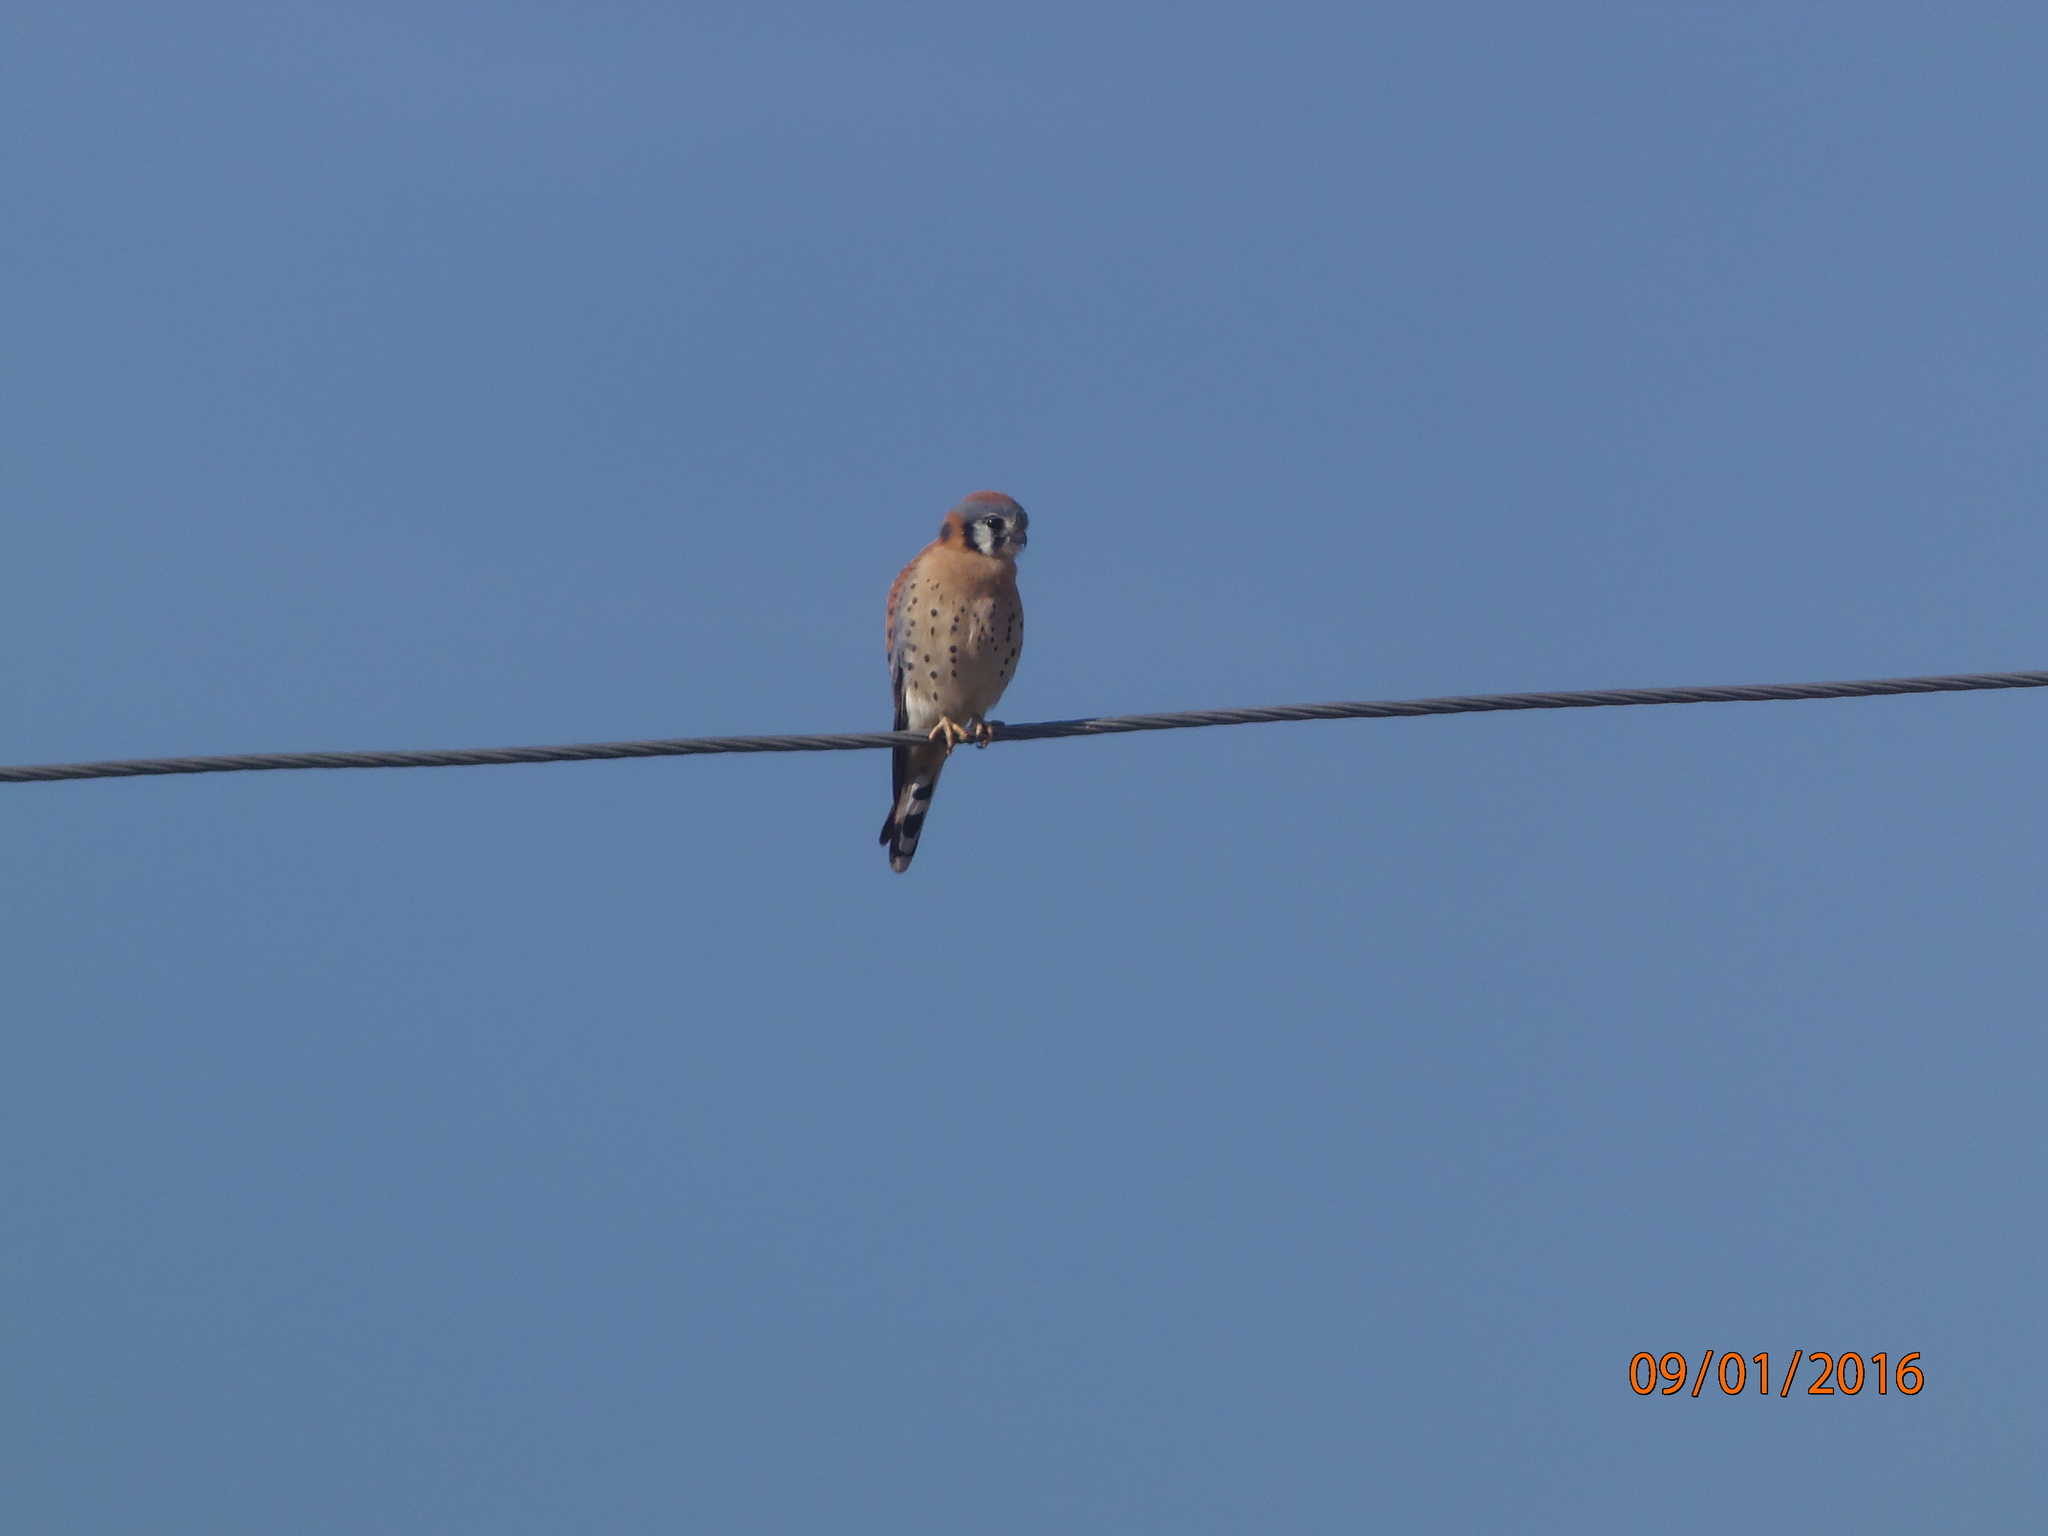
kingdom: Animalia
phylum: Chordata
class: Aves
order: Falconiformes
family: Falconidae
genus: Falco
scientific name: Falco sparverius
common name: American kestrel
